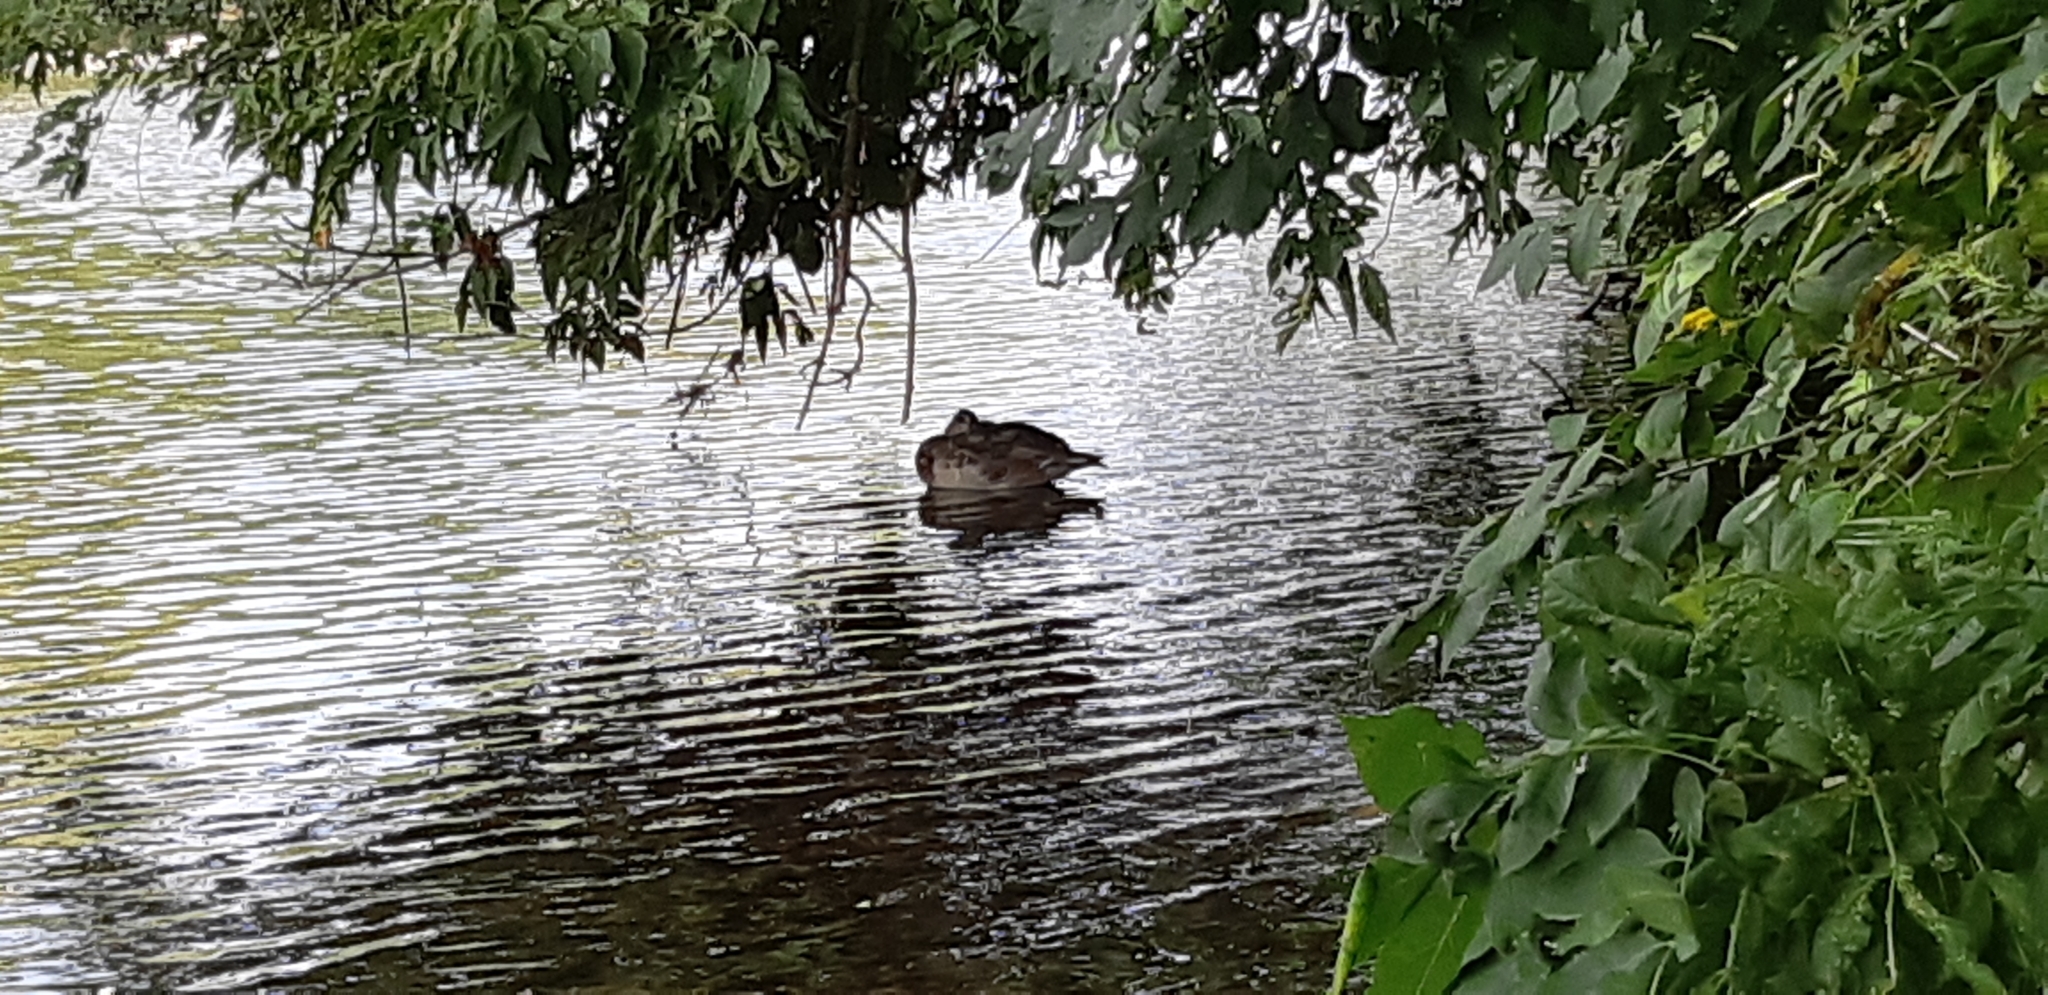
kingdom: Animalia
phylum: Chordata
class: Aves
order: Anseriformes
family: Anatidae
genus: Anas
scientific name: Anas platyrhynchos
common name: Mallard
